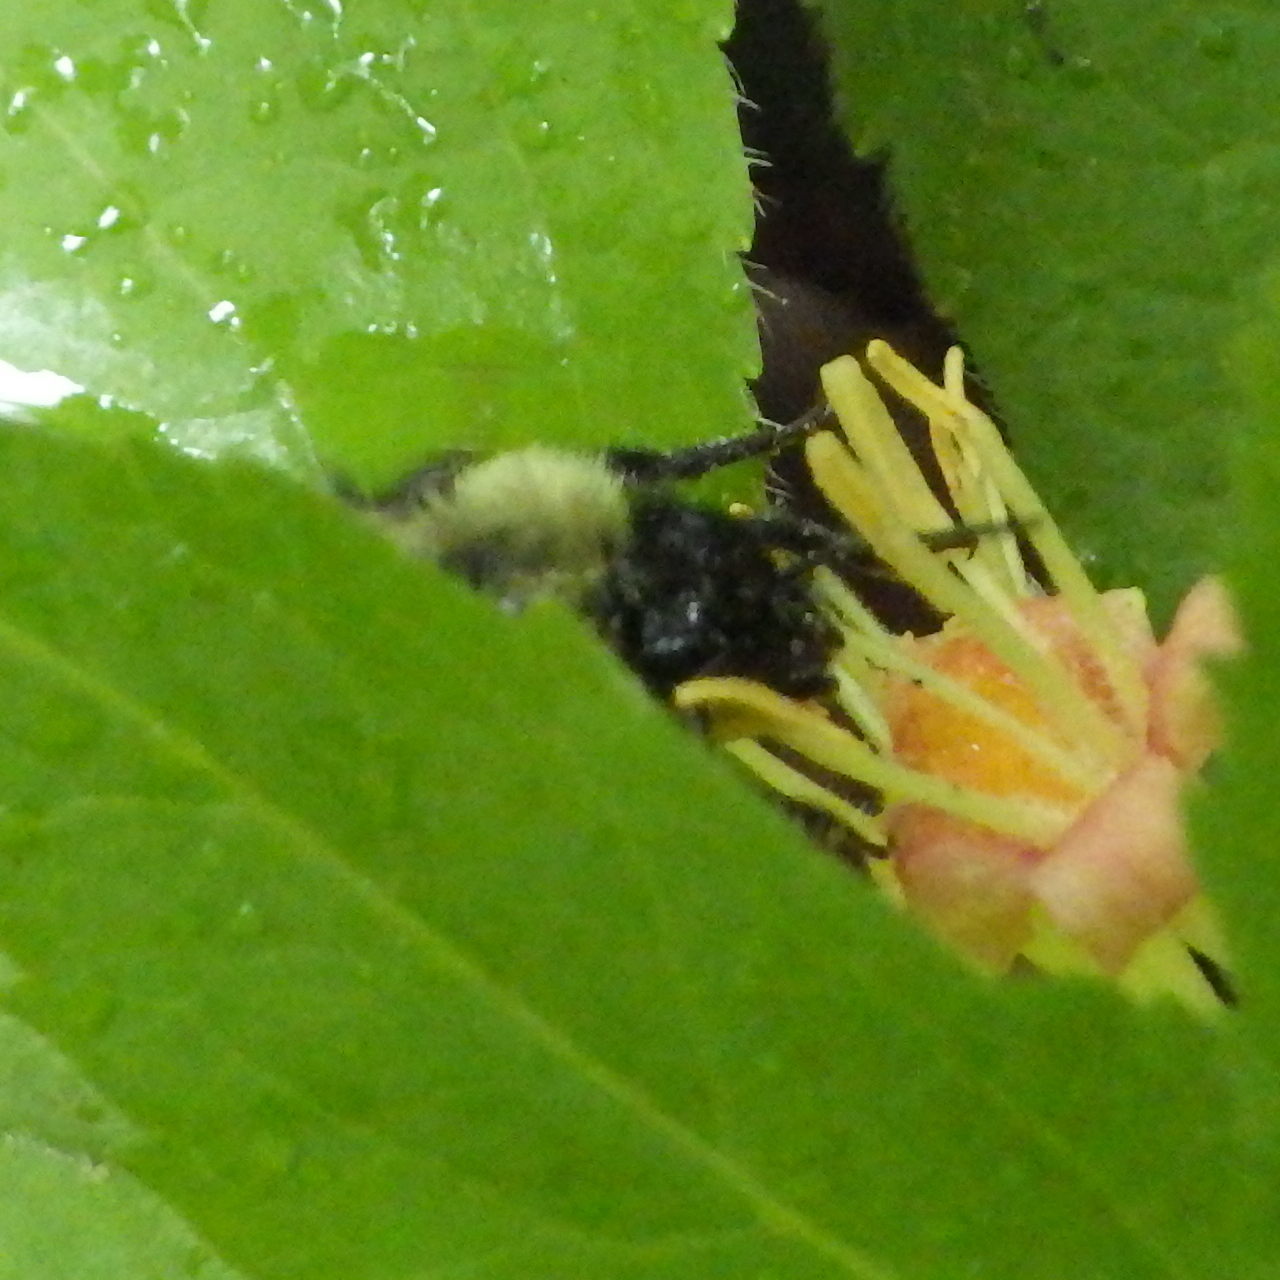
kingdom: Animalia
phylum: Arthropoda
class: Insecta
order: Hymenoptera
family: Apidae
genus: Pyrobombus
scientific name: Pyrobombus
